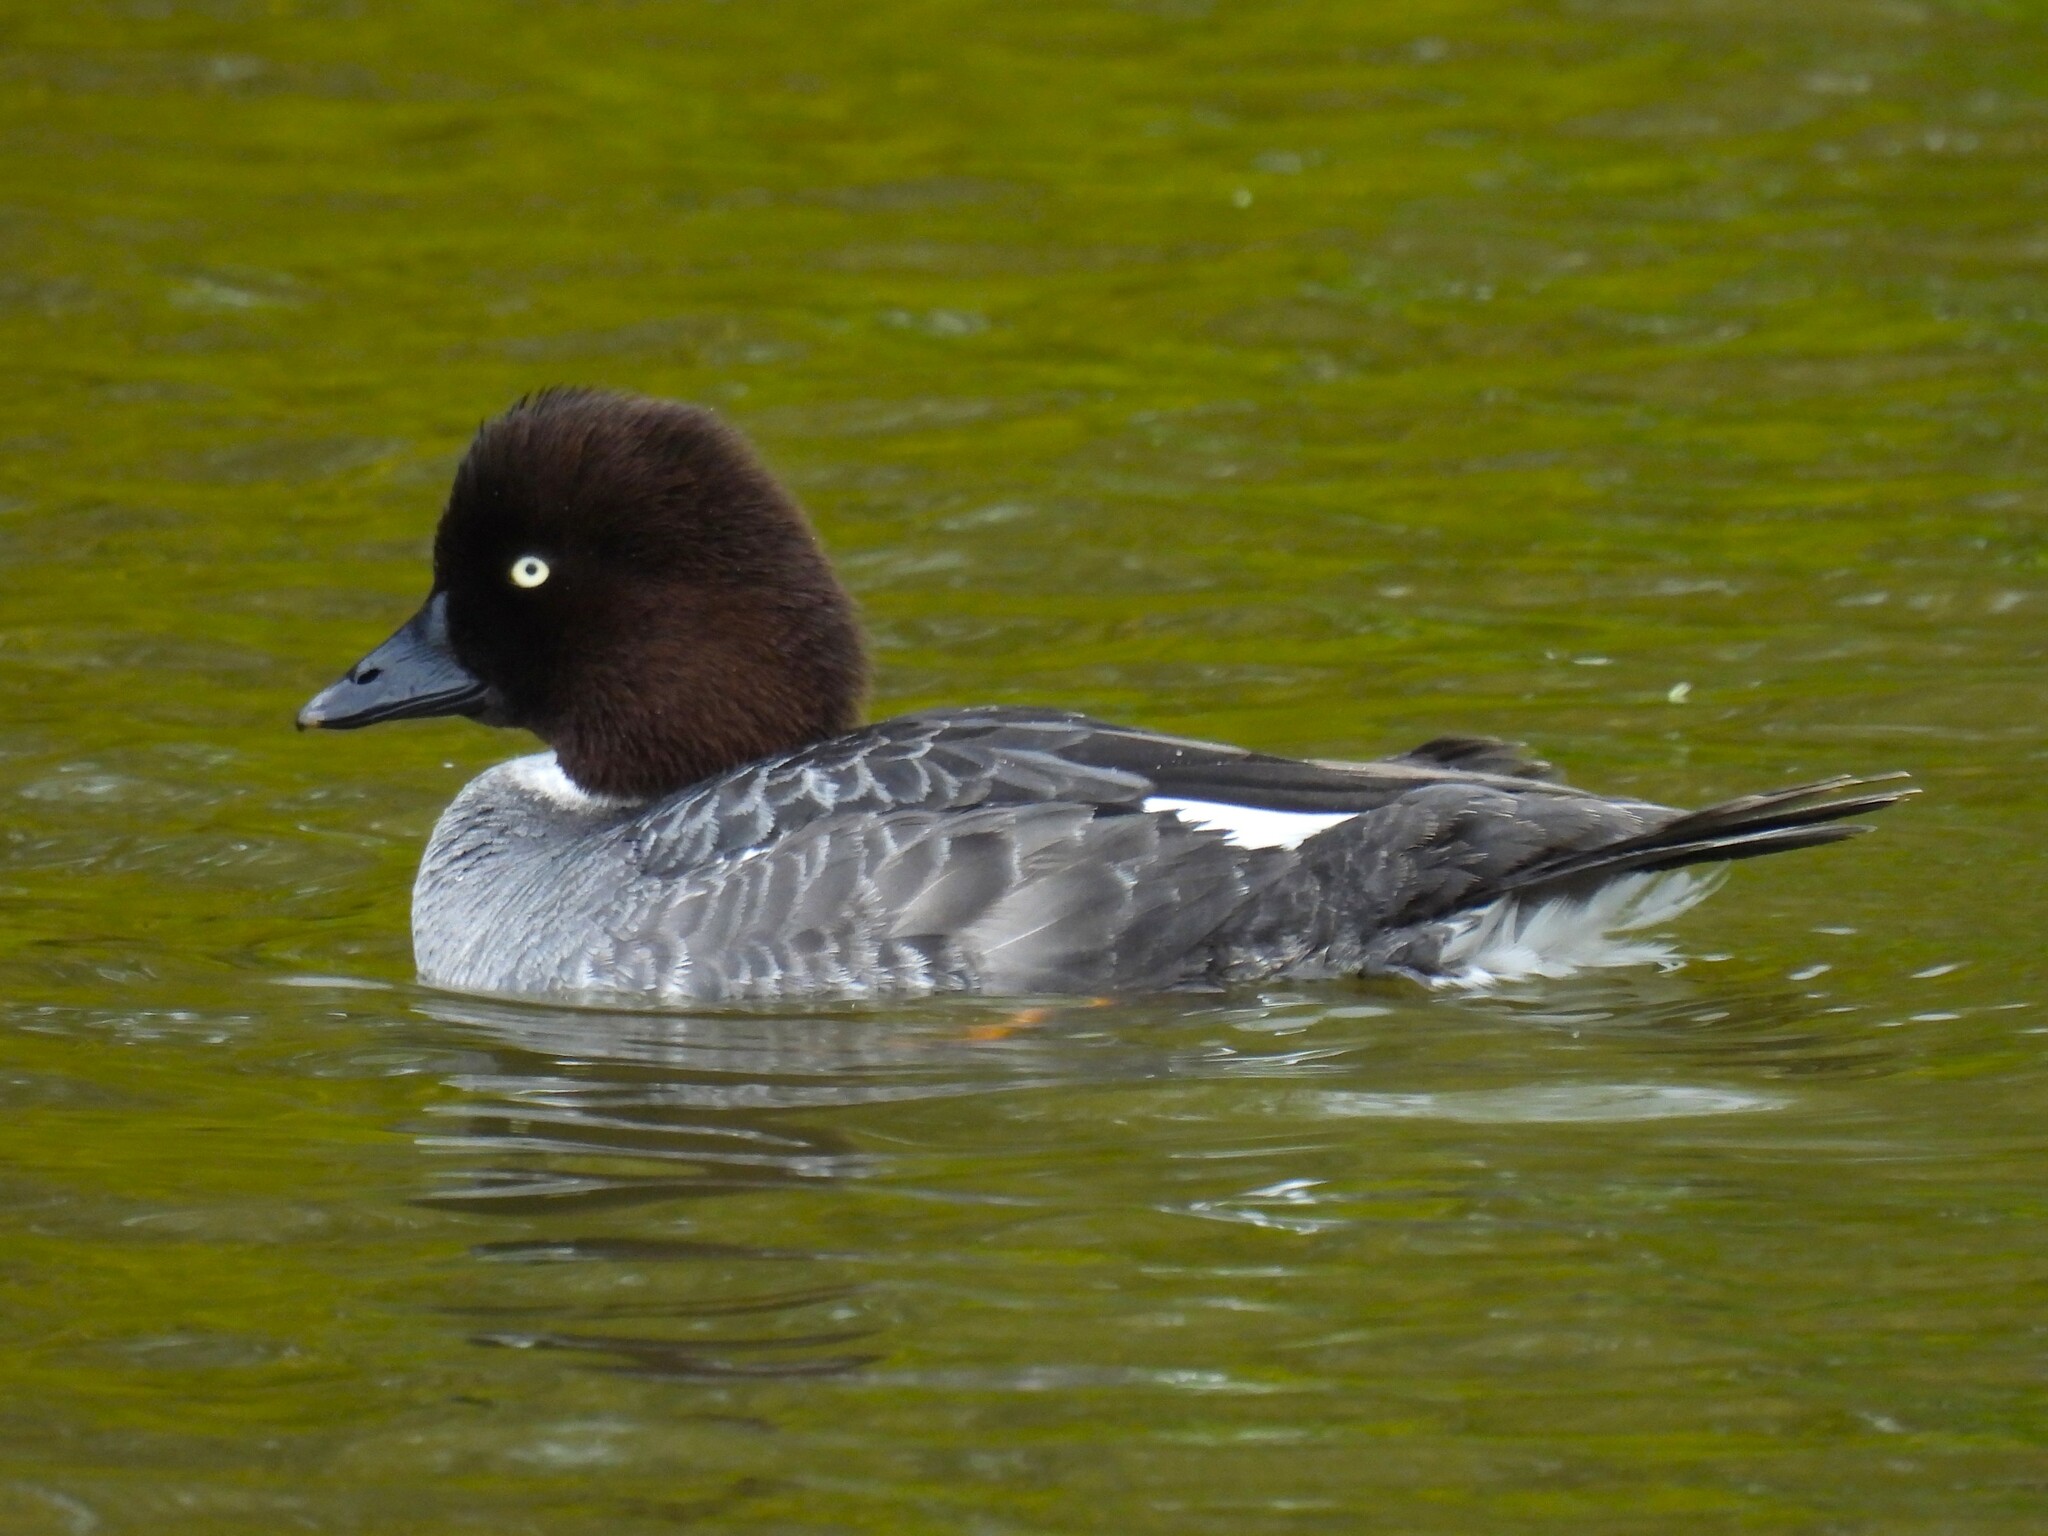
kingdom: Animalia
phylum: Chordata
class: Aves
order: Anseriformes
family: Anatidae
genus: Bucephala
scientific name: Bucephala clangula
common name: Common goldeneye
